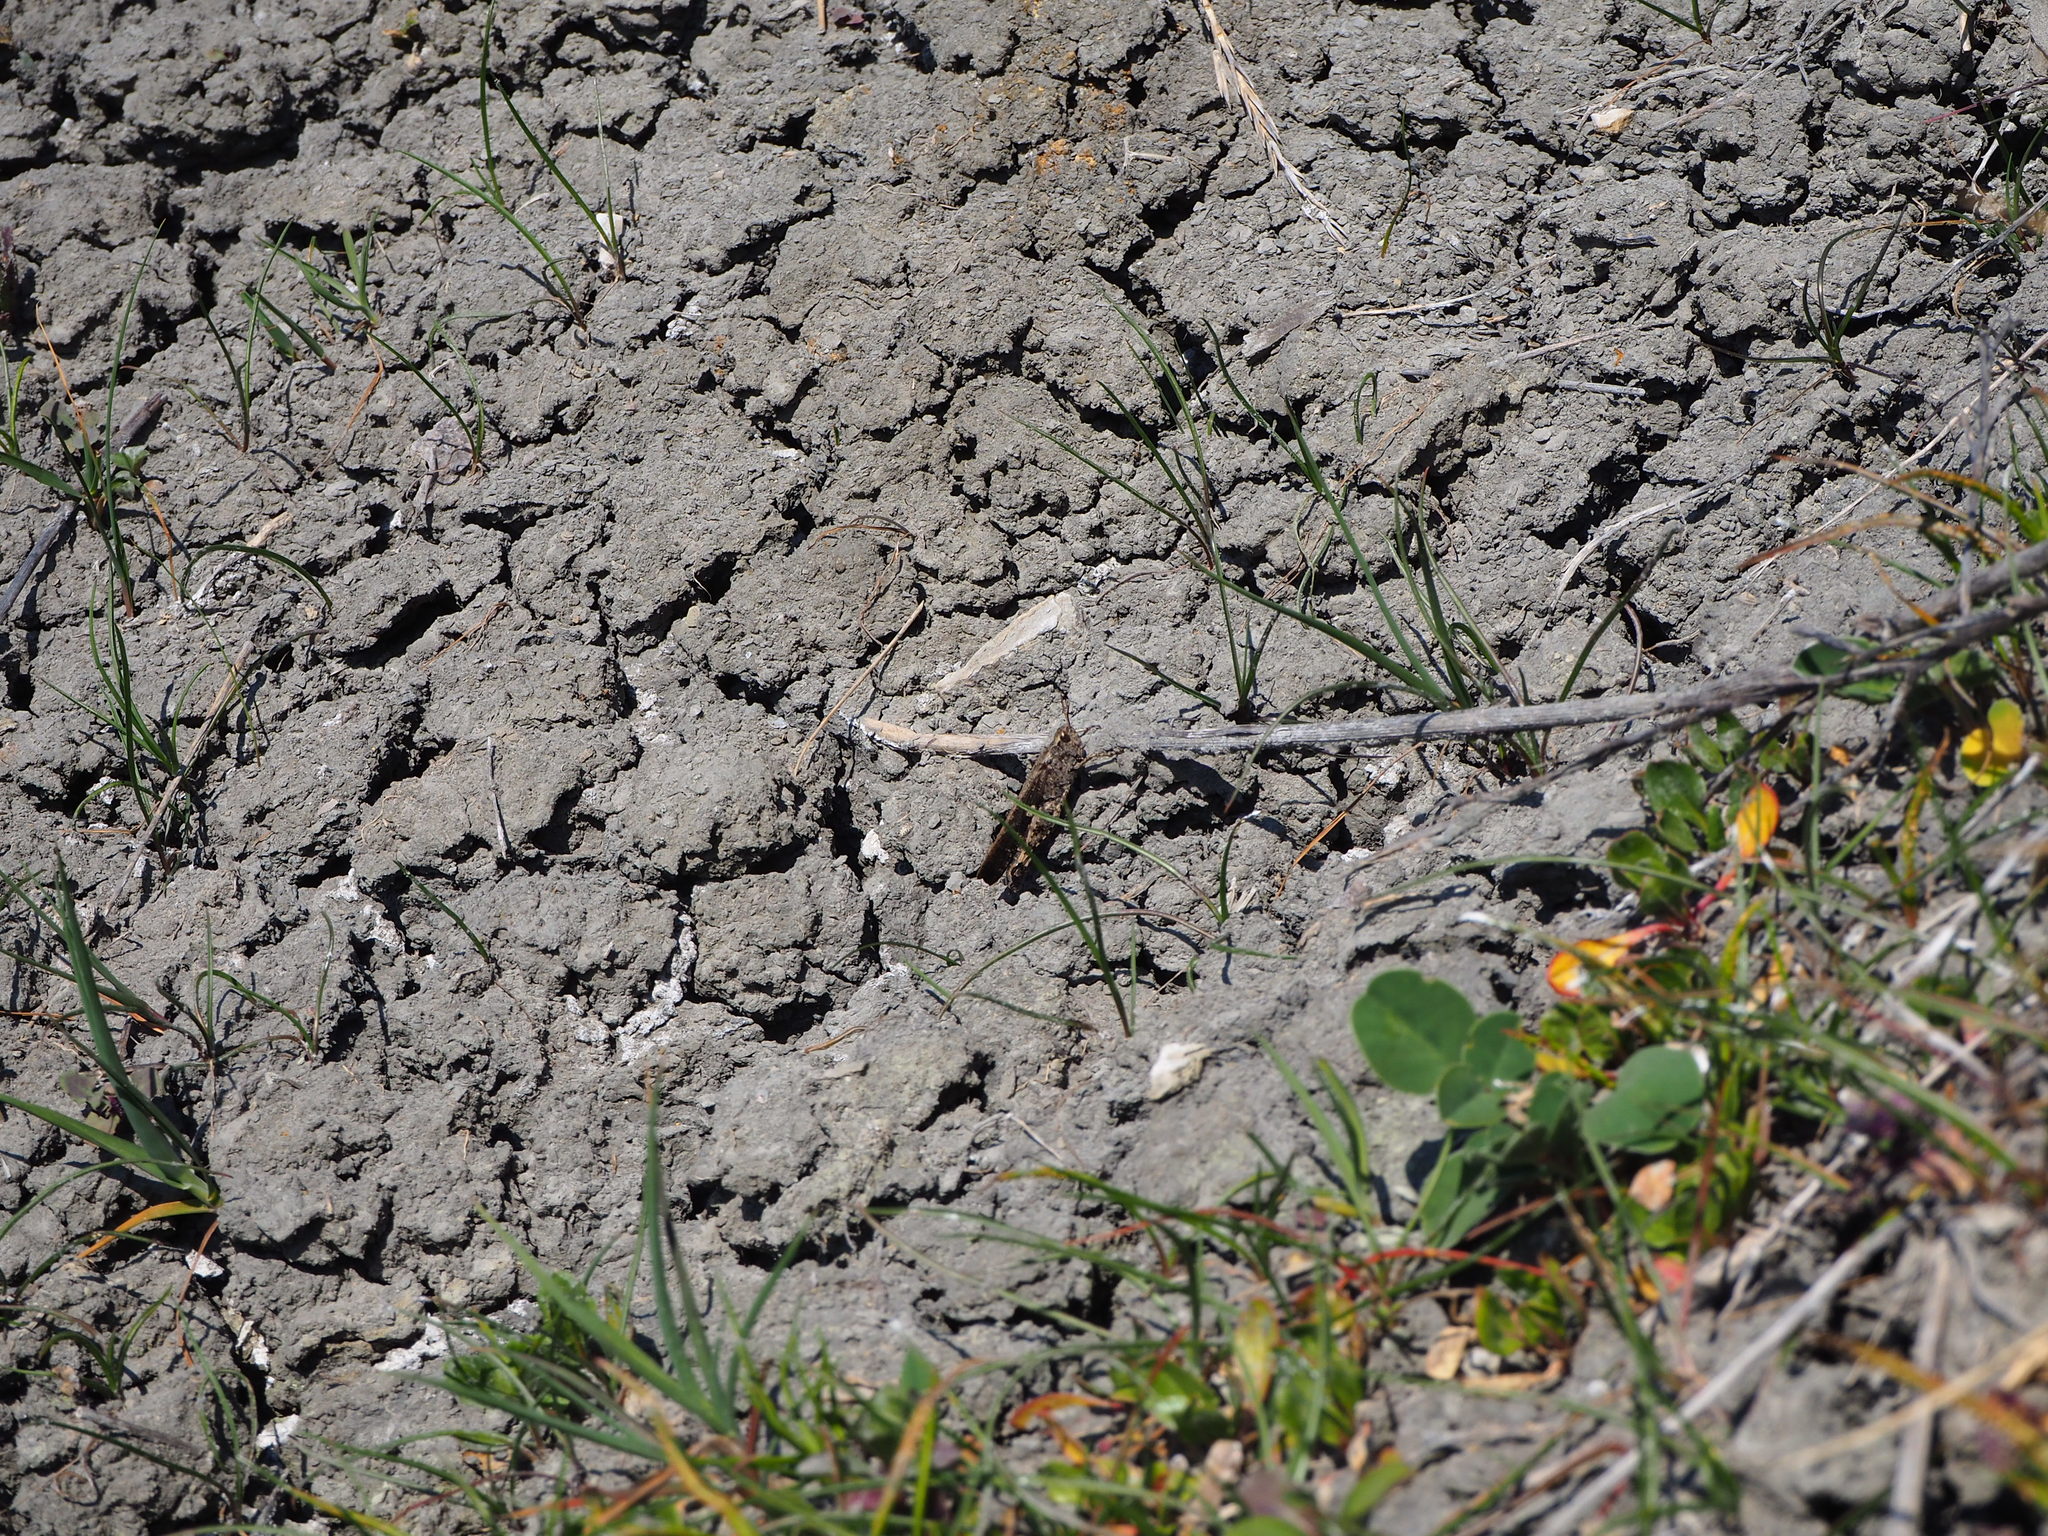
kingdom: Animalia
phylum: Arthropoda
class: Insecta
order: Orthoptera
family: Acrididae
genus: Aiolopus
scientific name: Aiolopus strepens
